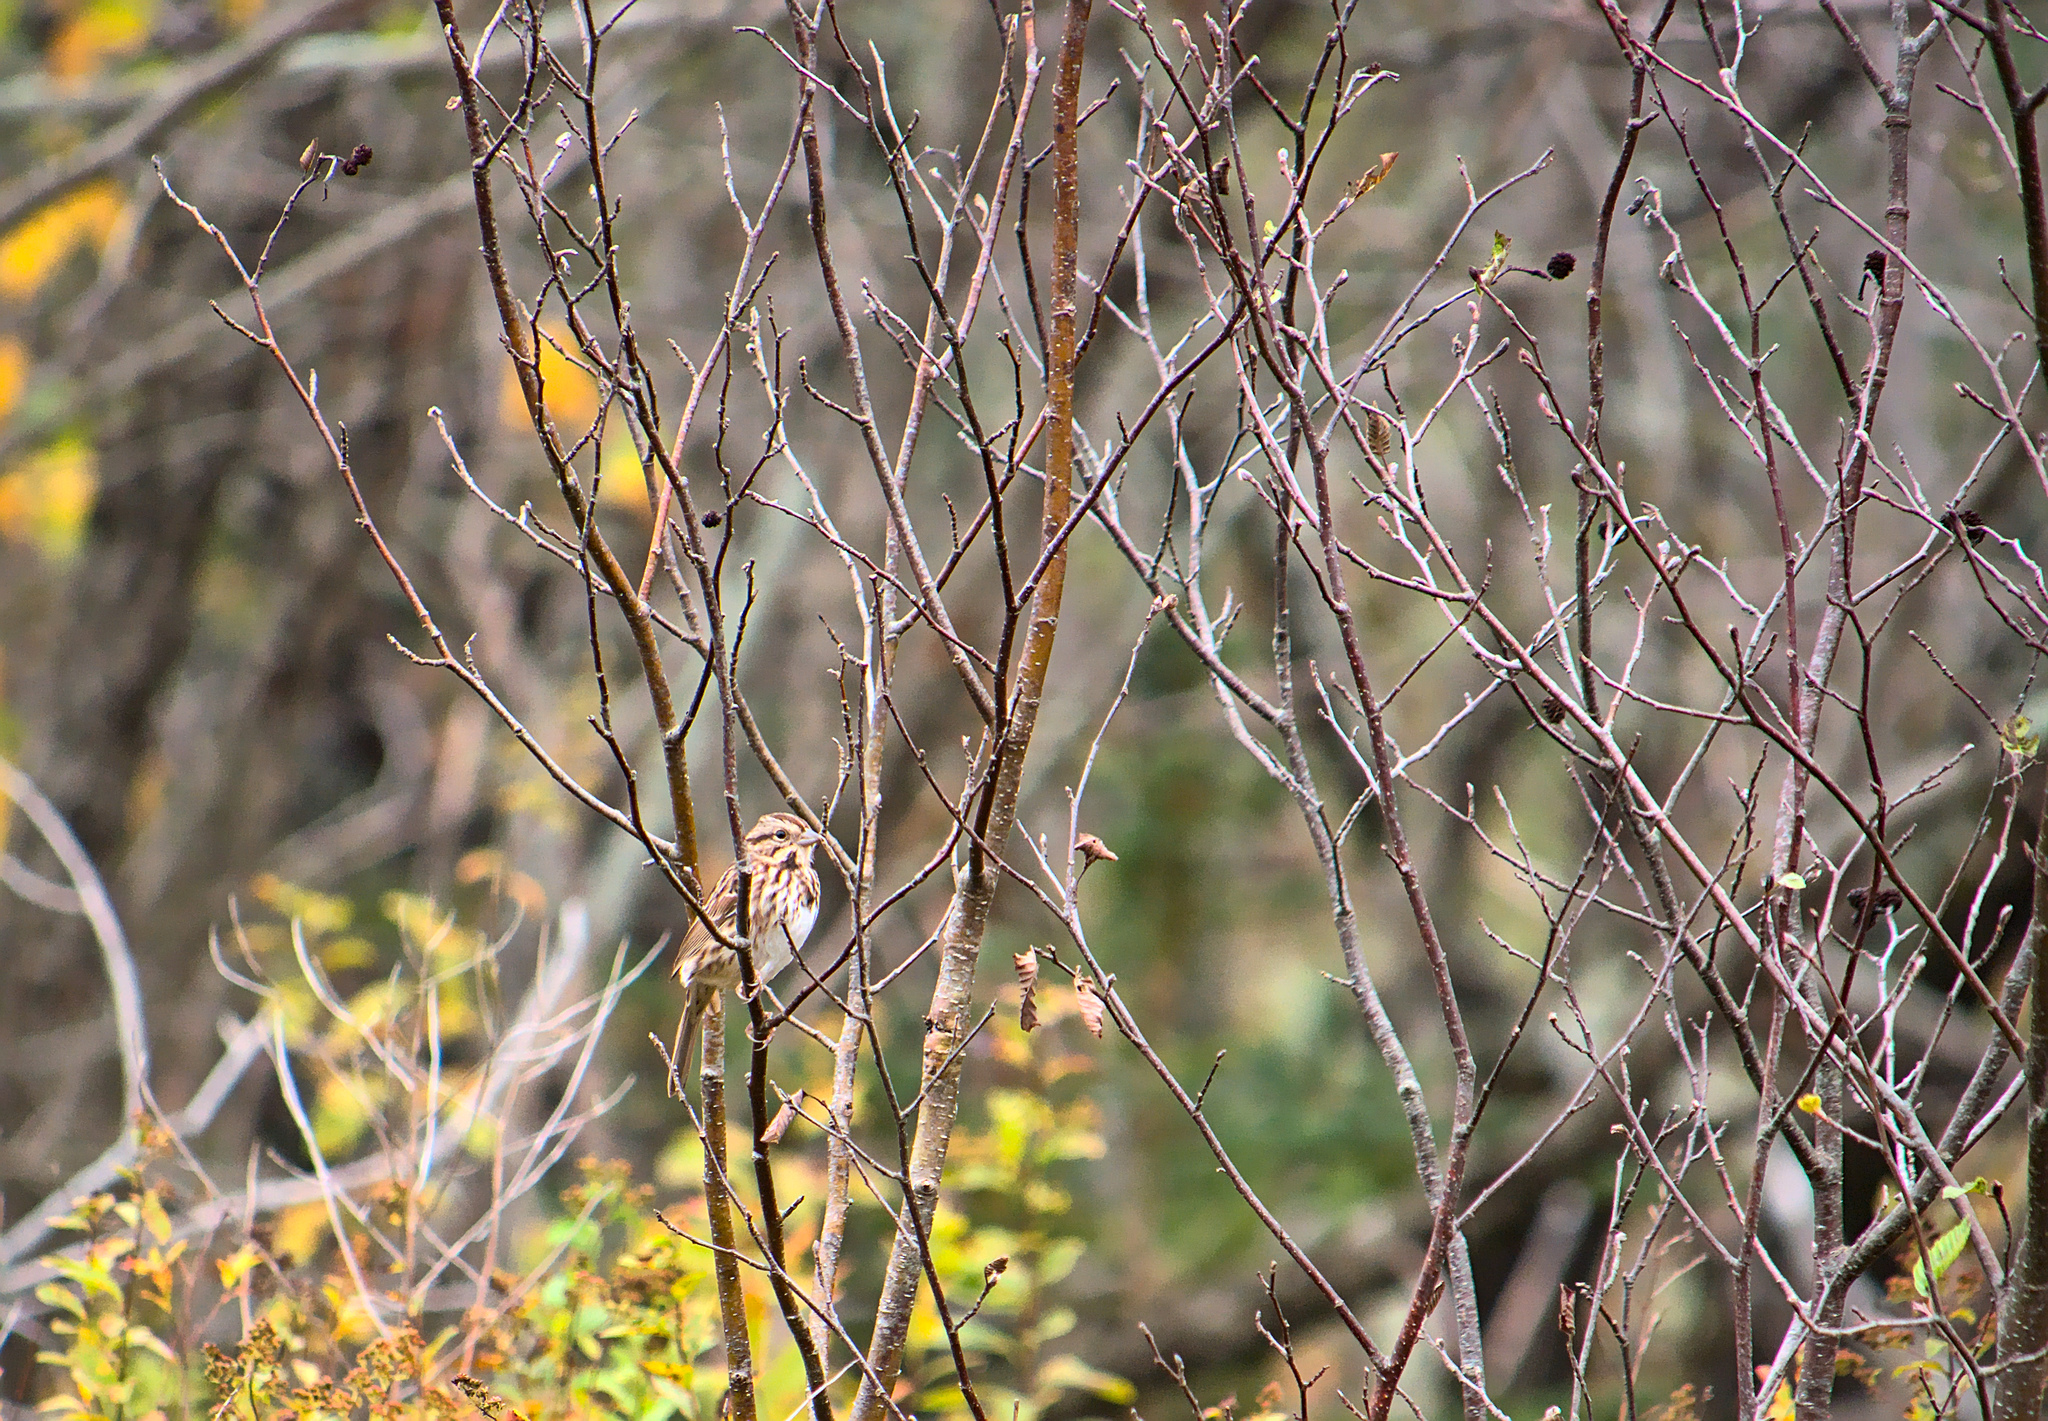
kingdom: Animalia
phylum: Chordata
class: Aves
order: Passeriformes
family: Passerellidae
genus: Melospiza
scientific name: Melospiza melodia
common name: Song sparrow
